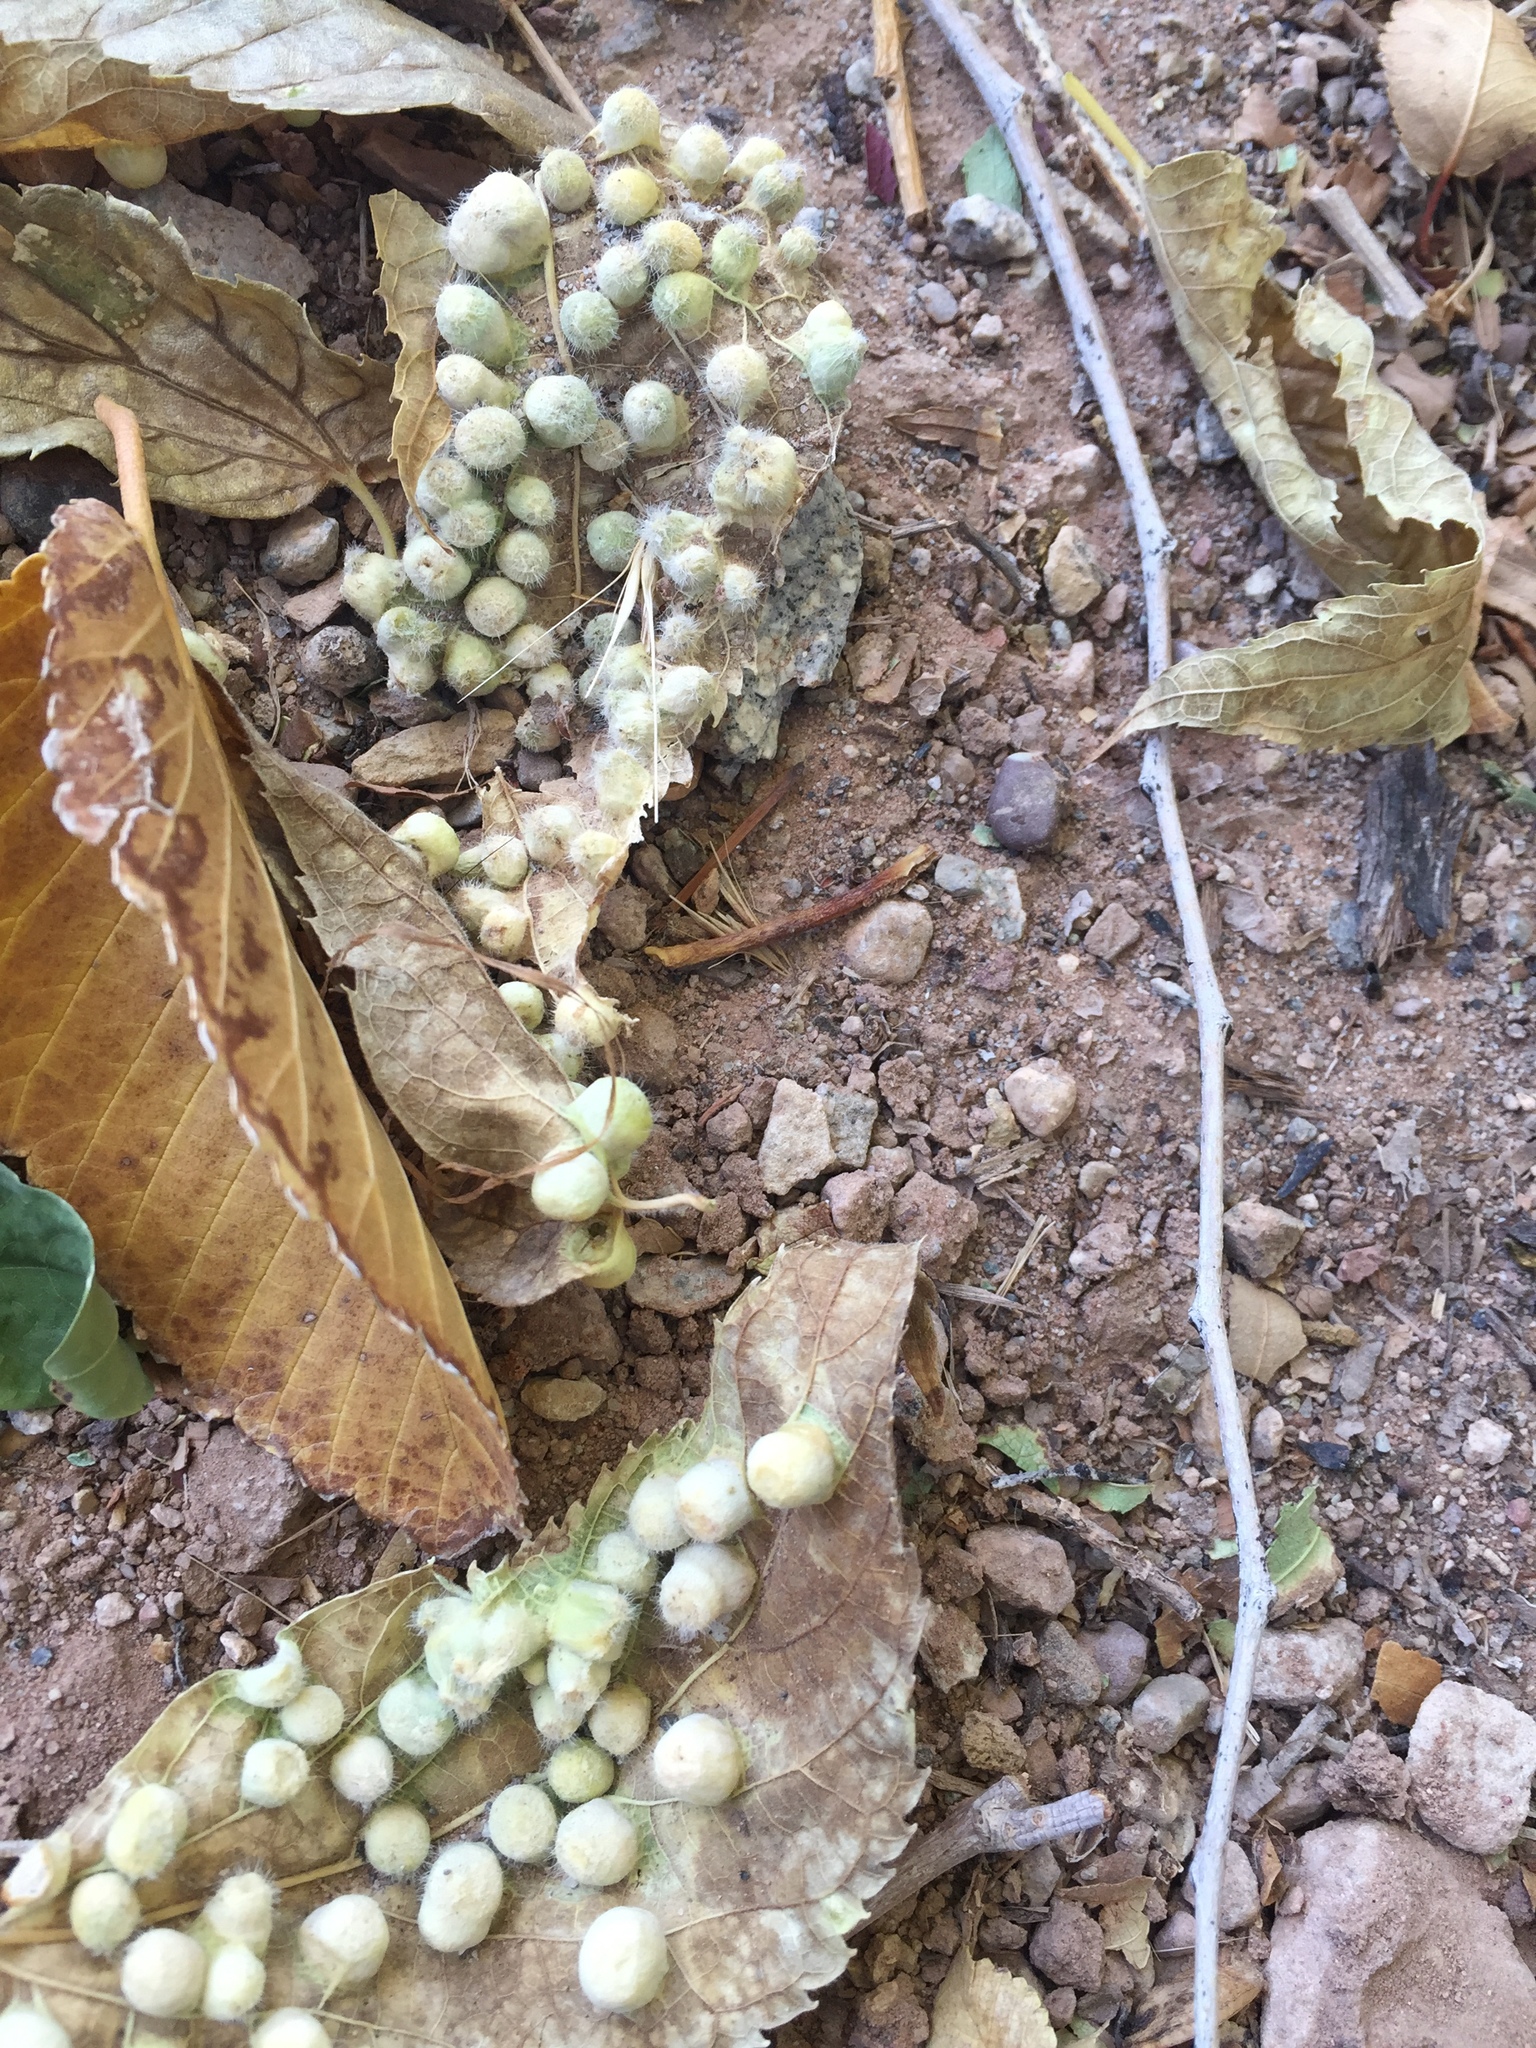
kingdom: Animalia
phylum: Arthropoda
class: Insecta
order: Hemiptera
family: Aphalaridae
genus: Pachypsylla
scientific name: Pachypsylla celtidismamma
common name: Hackberry nipplegall psyllid
